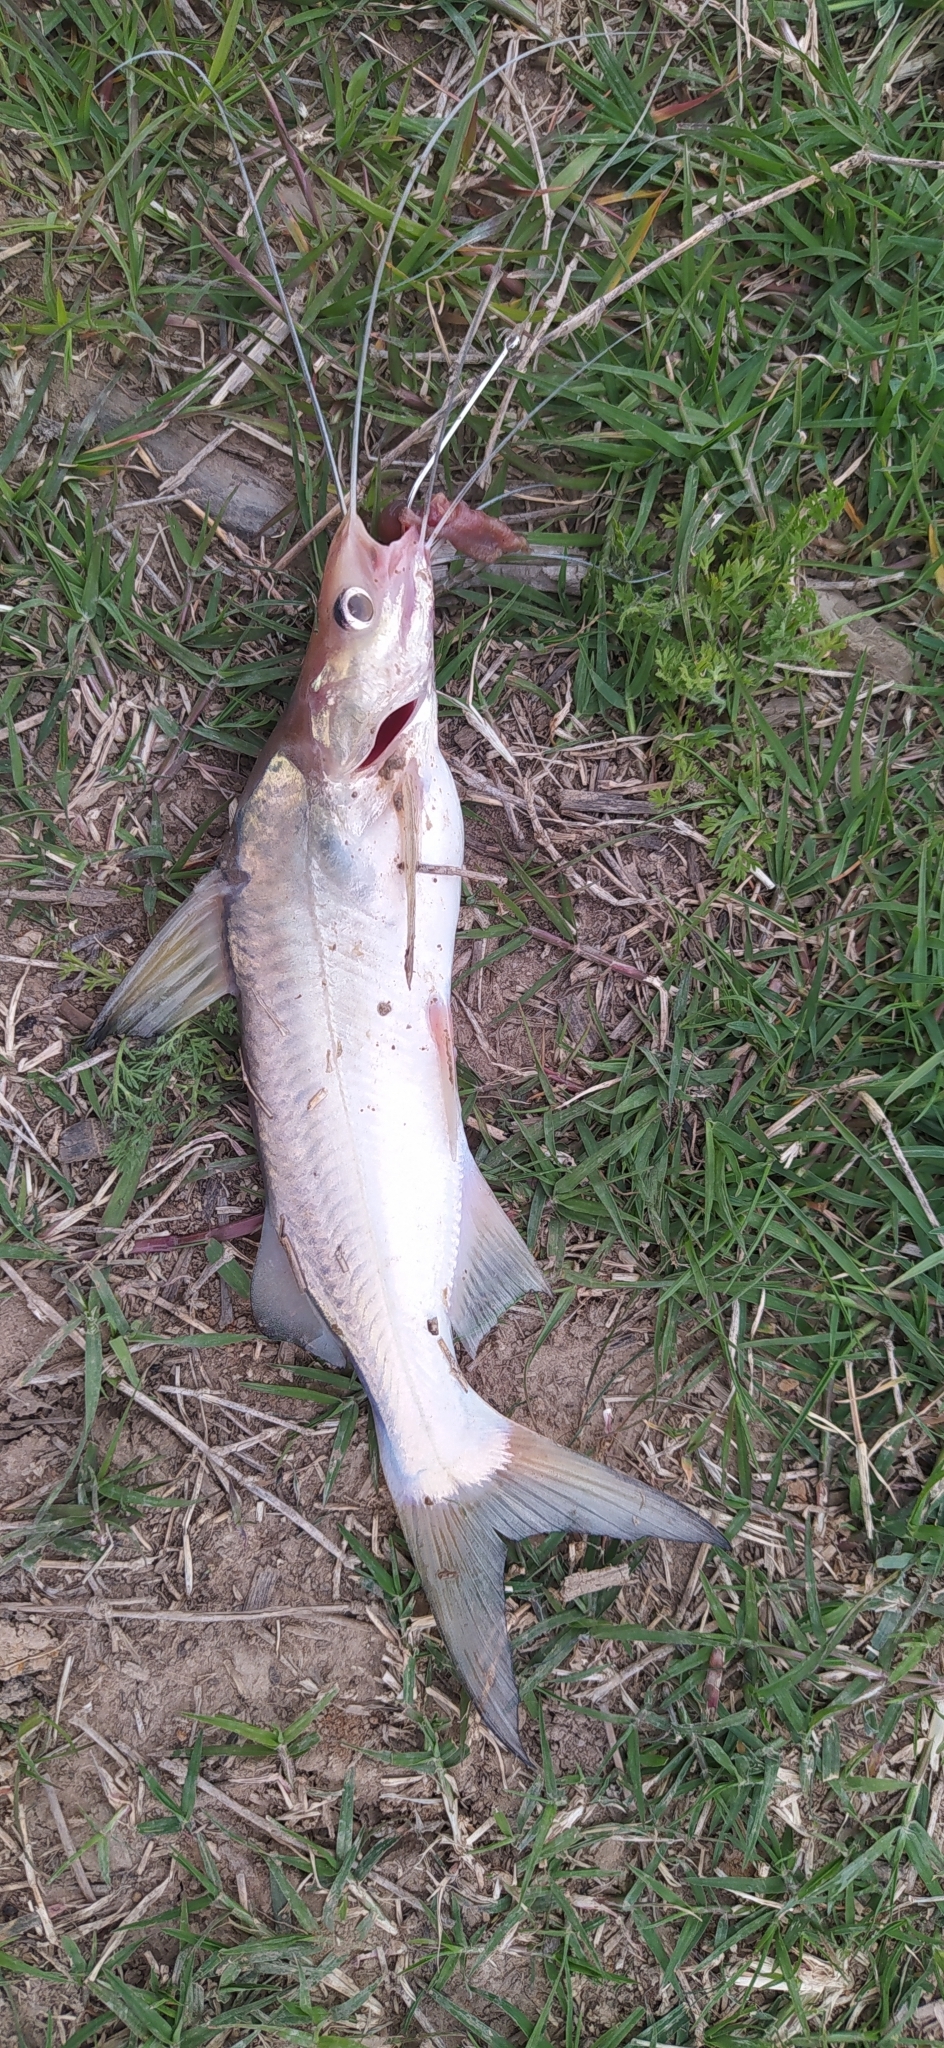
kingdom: Animalia
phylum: Chordata
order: Siluriformes
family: Pimelodidae
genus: Parapimelodus
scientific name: Parapimelodus valenciennis
